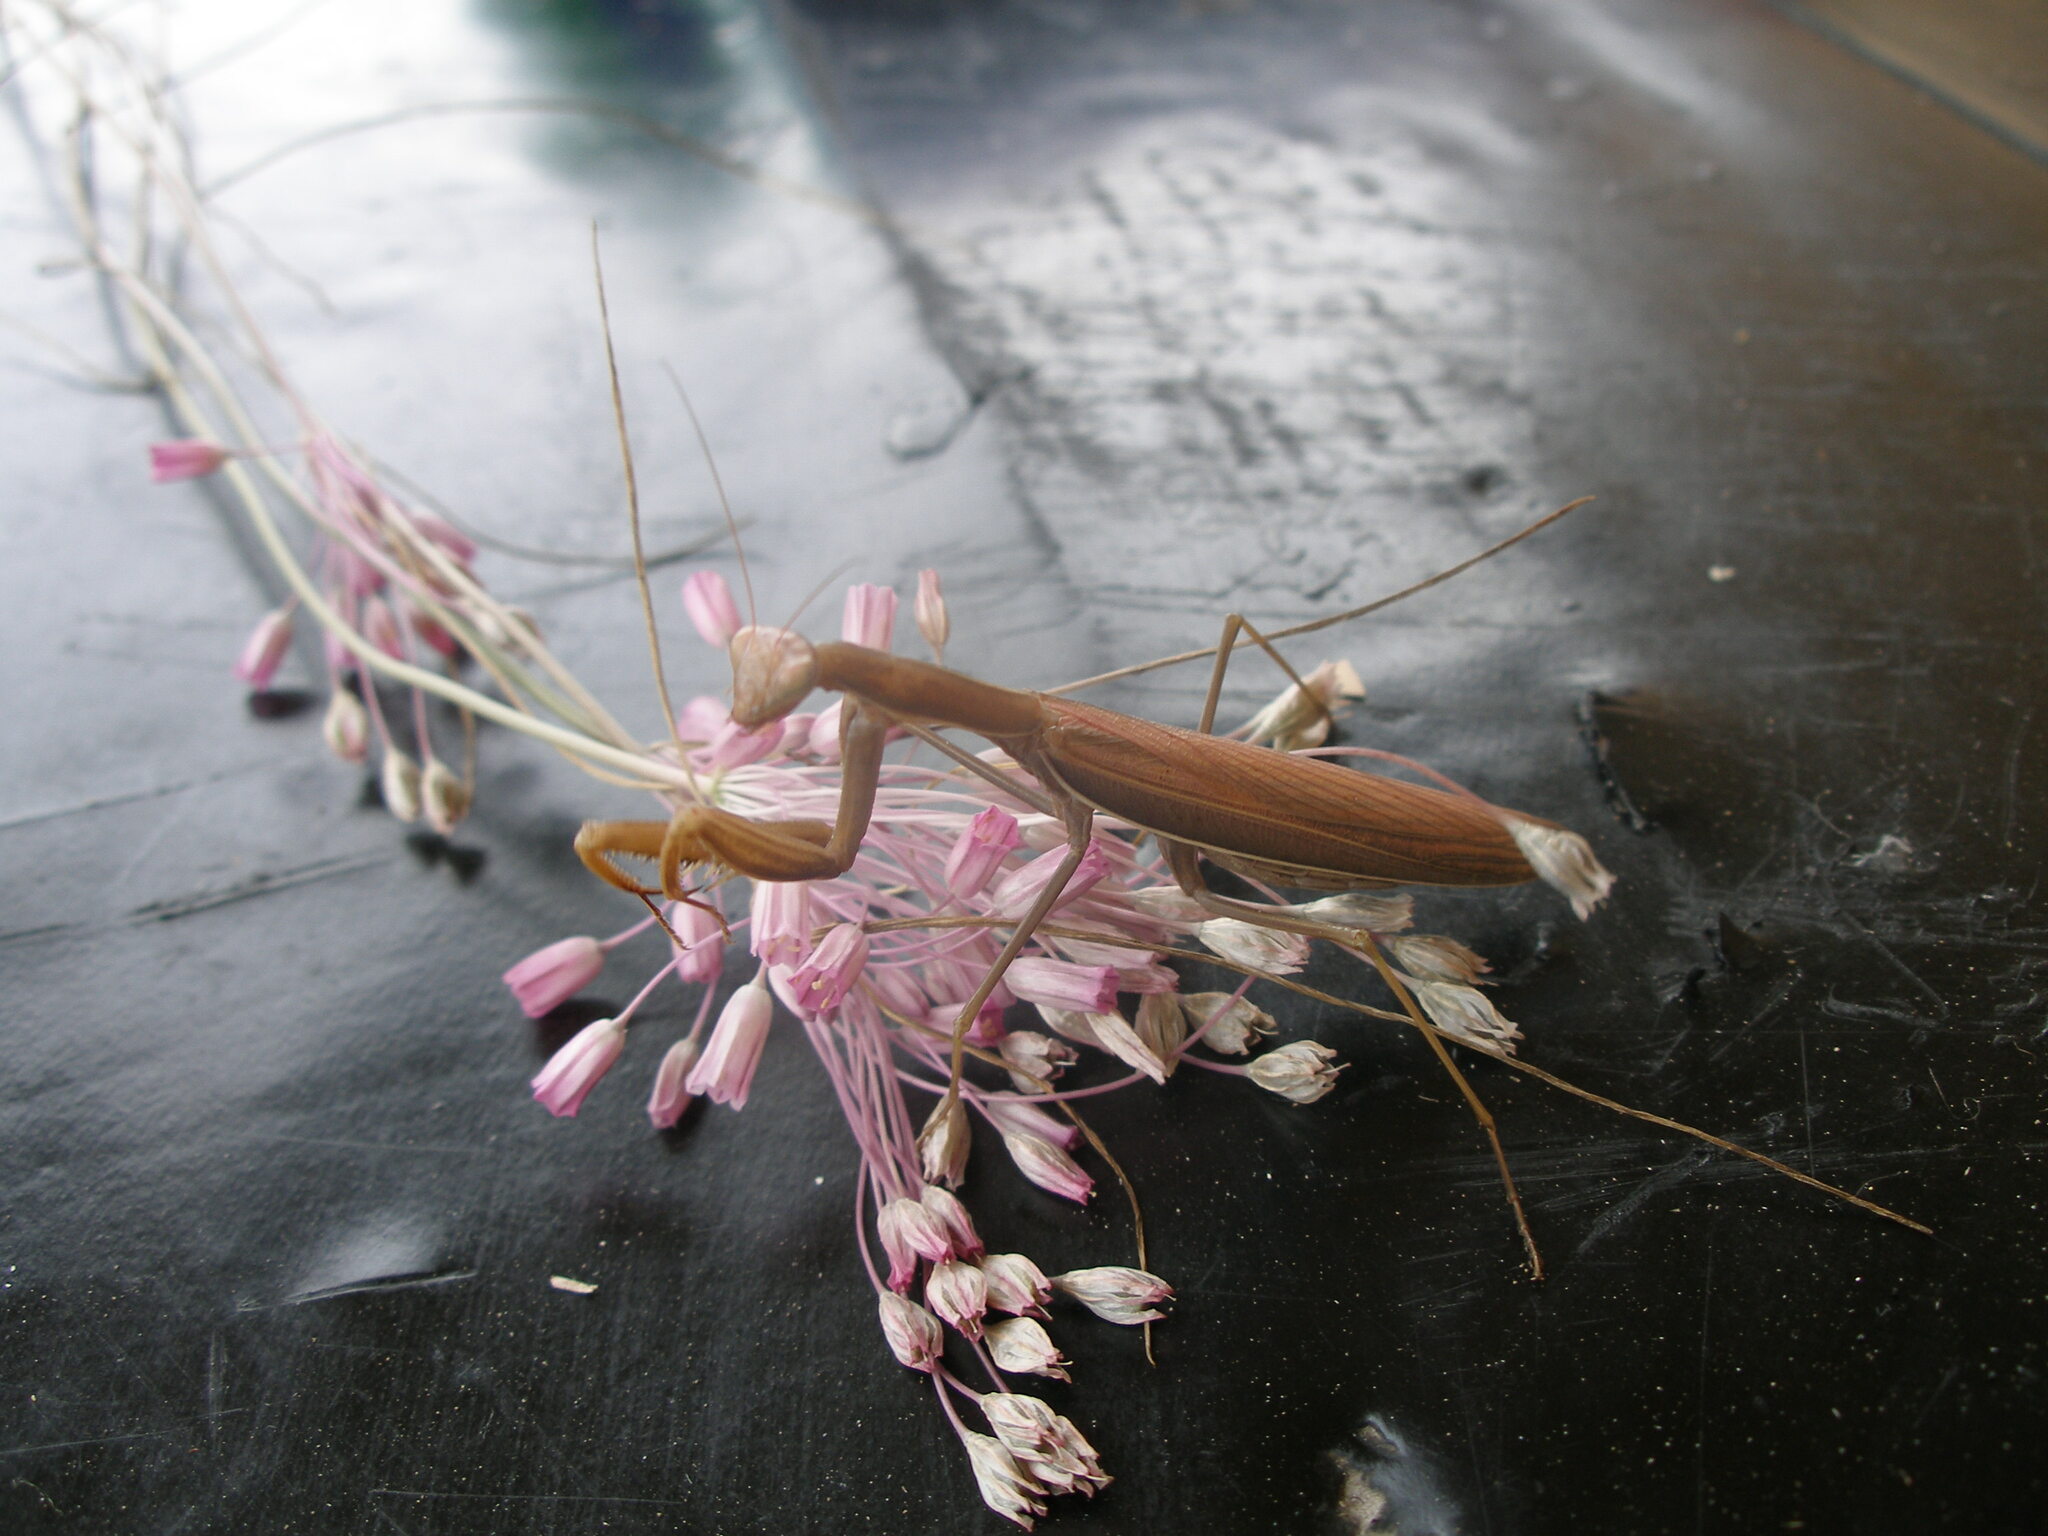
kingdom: Animalia
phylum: Arthropoda
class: Insecta
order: Mantodea
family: Mantidae
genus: Mantis
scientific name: Mantis religiosa
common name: Praying mantis
